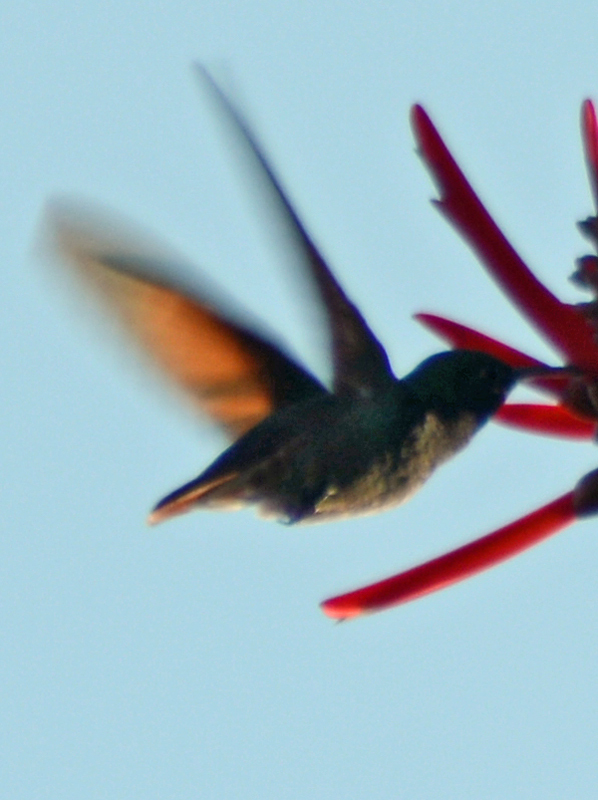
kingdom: Animalia
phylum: Chordata
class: Aves
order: Apodiformes
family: Trochilidae
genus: Saucerottia
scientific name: Saucerottia beryllina
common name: Berylline hummingbird
